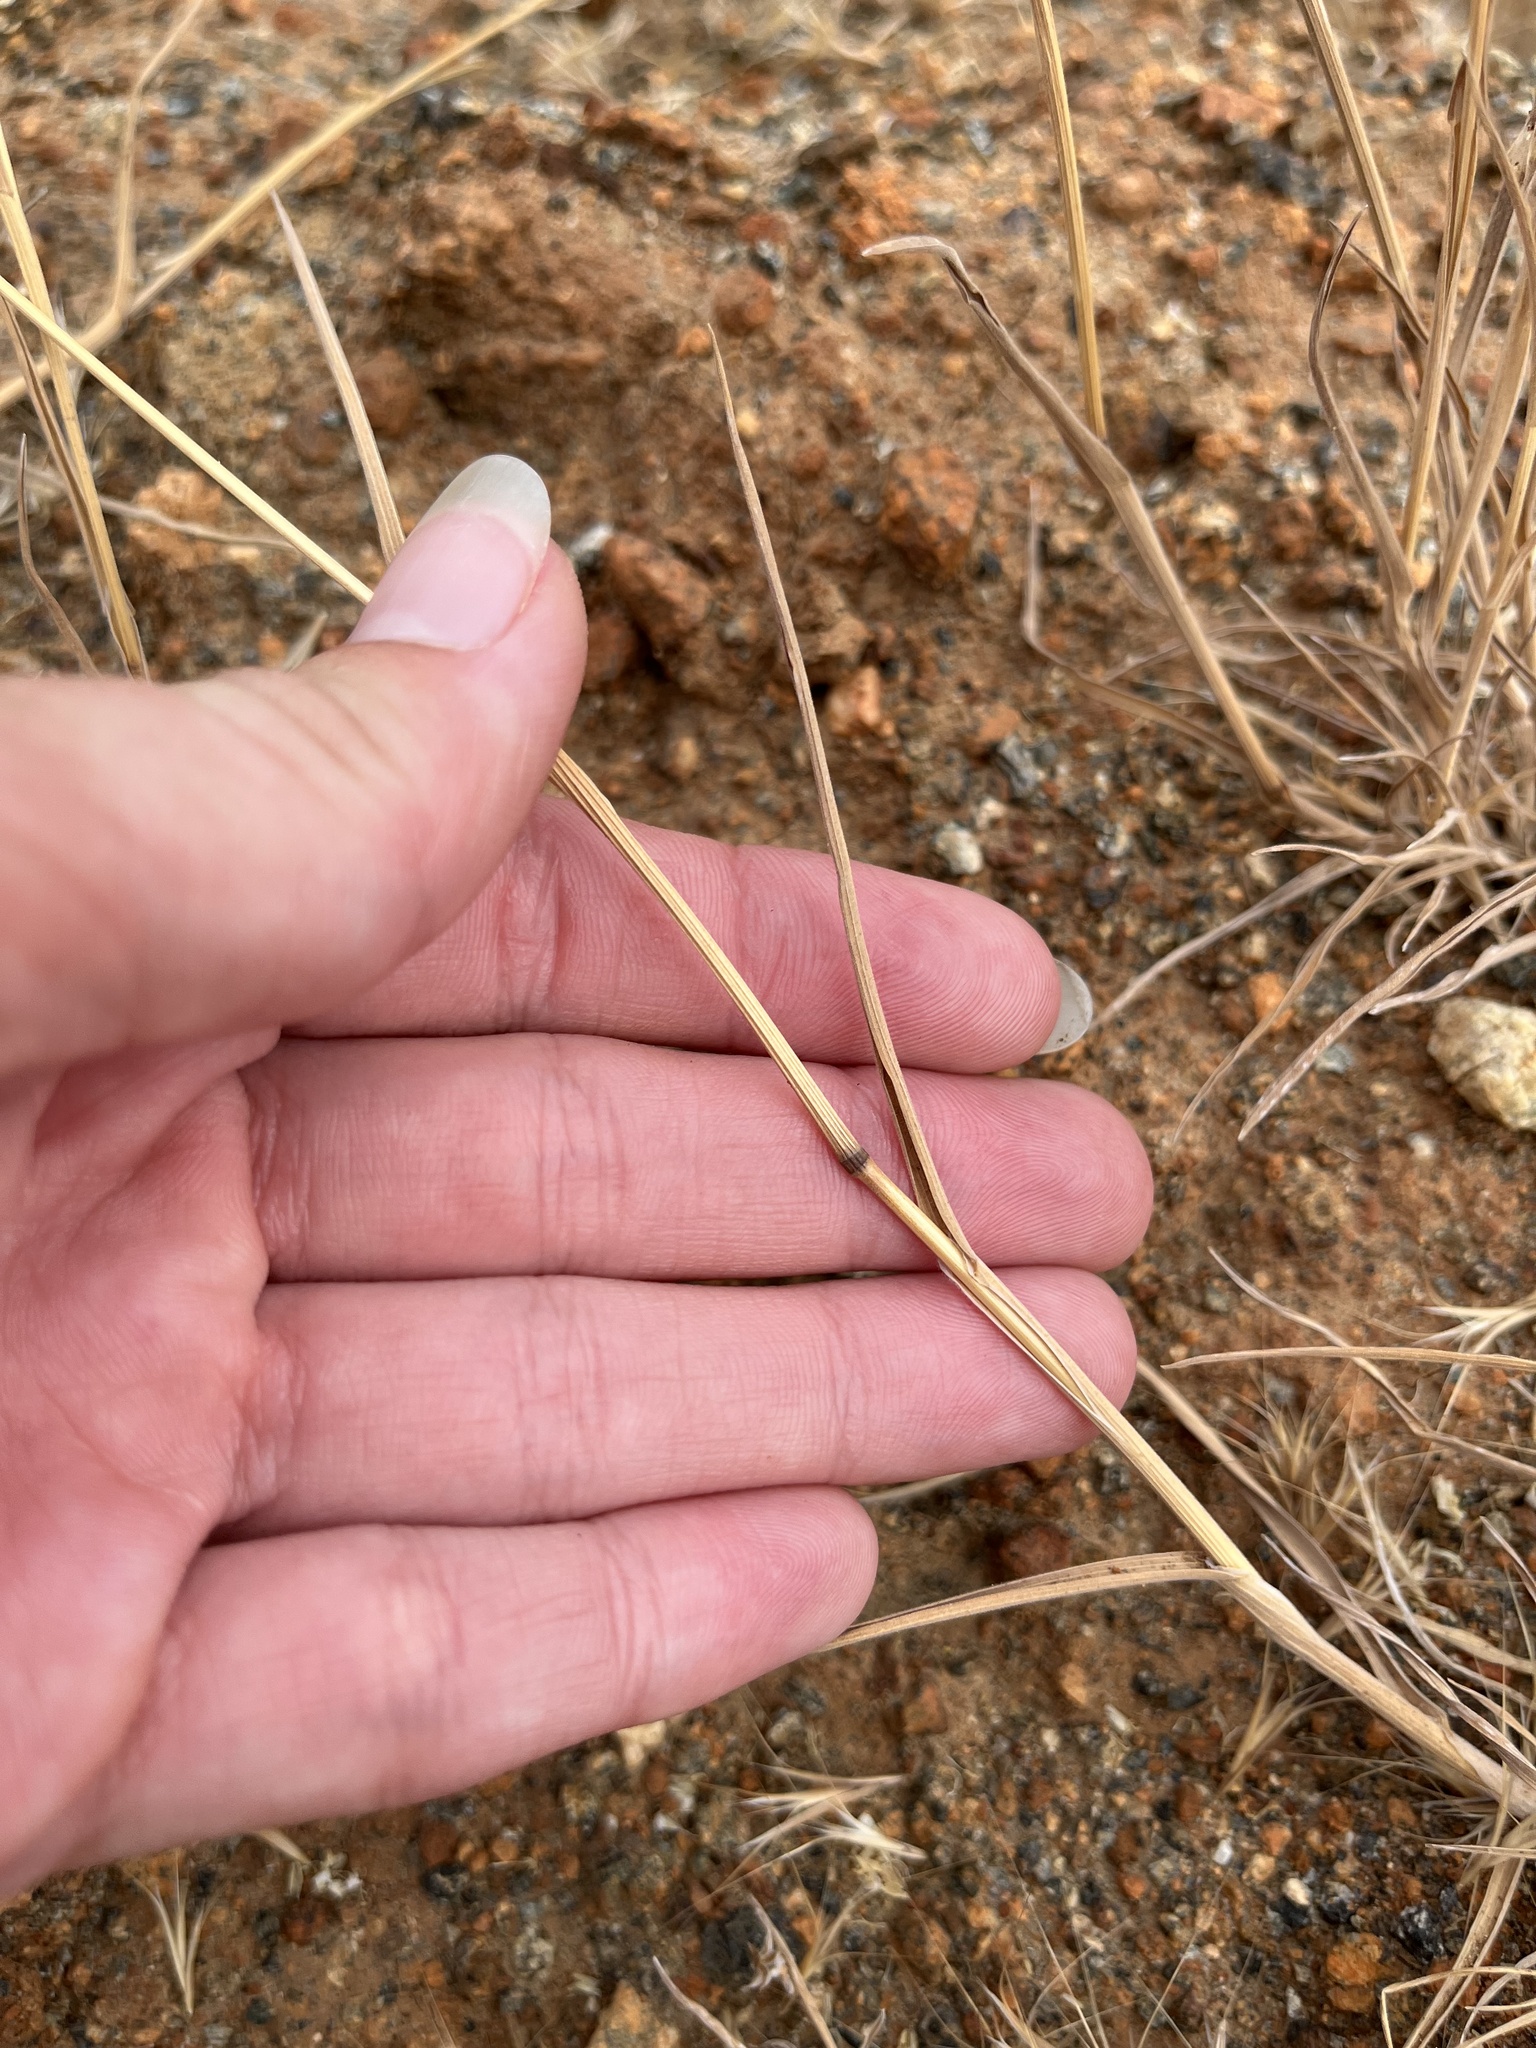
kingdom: Plantae
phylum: Tracheophyta
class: Liliopsida
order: Poales
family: Poaceae
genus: Bromus
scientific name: Bromus rubens
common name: Red brome
